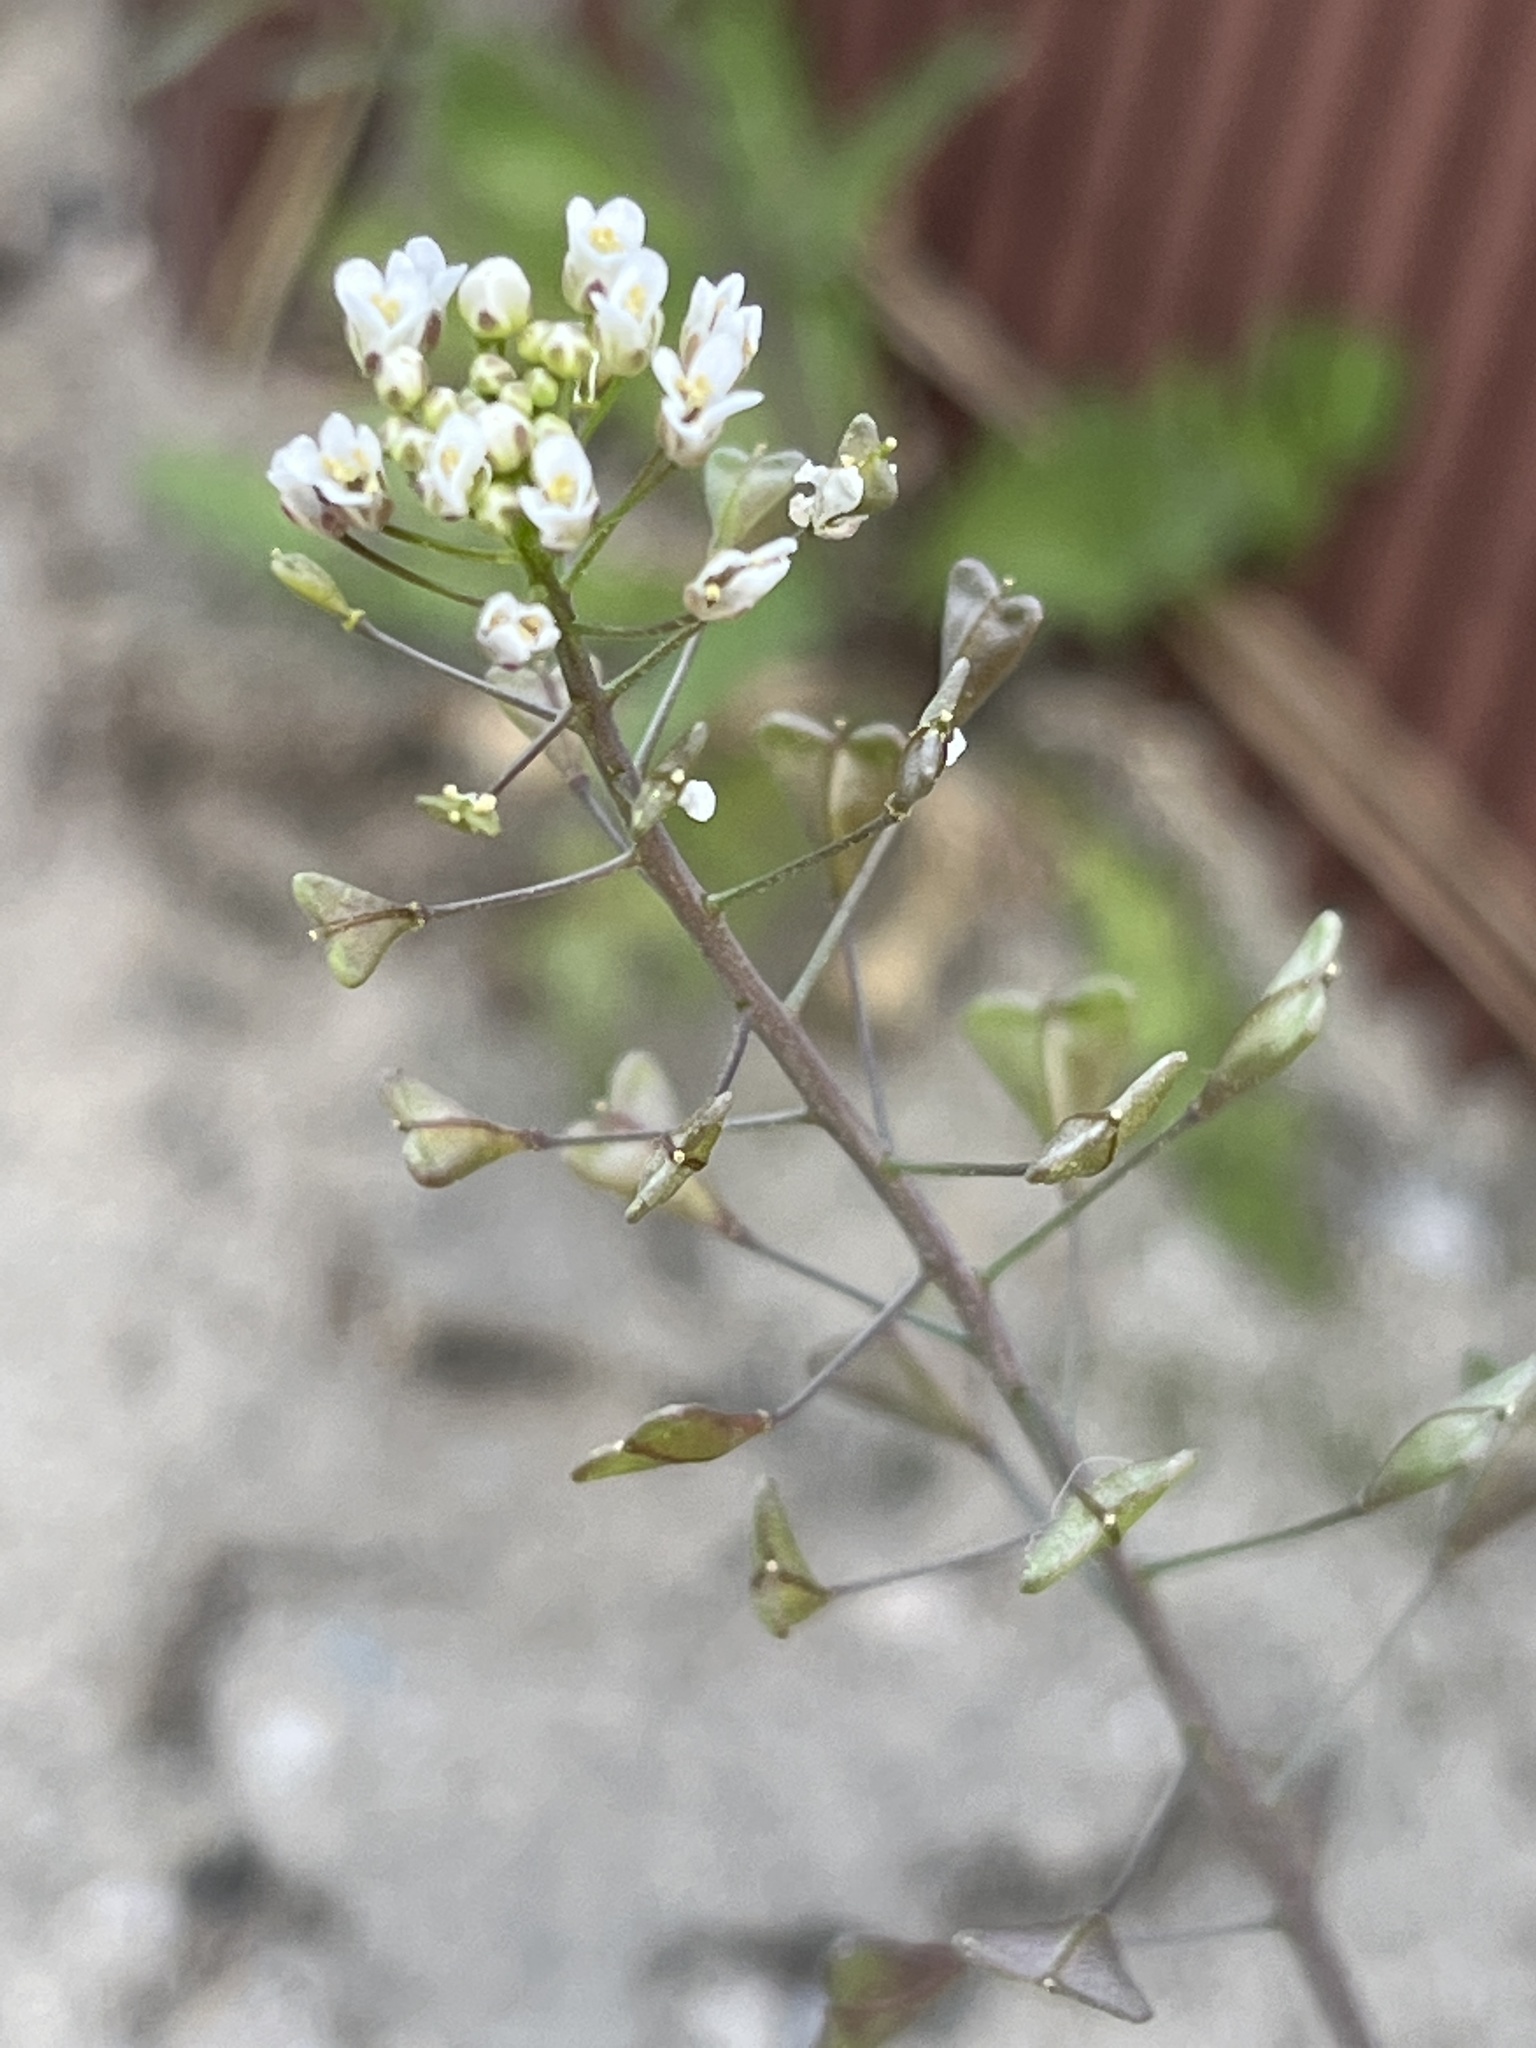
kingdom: Plantae
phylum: Tracheophyta
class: Magnoliopsida
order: Brassicales
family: Brassicaceae
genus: Capsella
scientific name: Capsella bursa-pastoris
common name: Shepherd's purse
